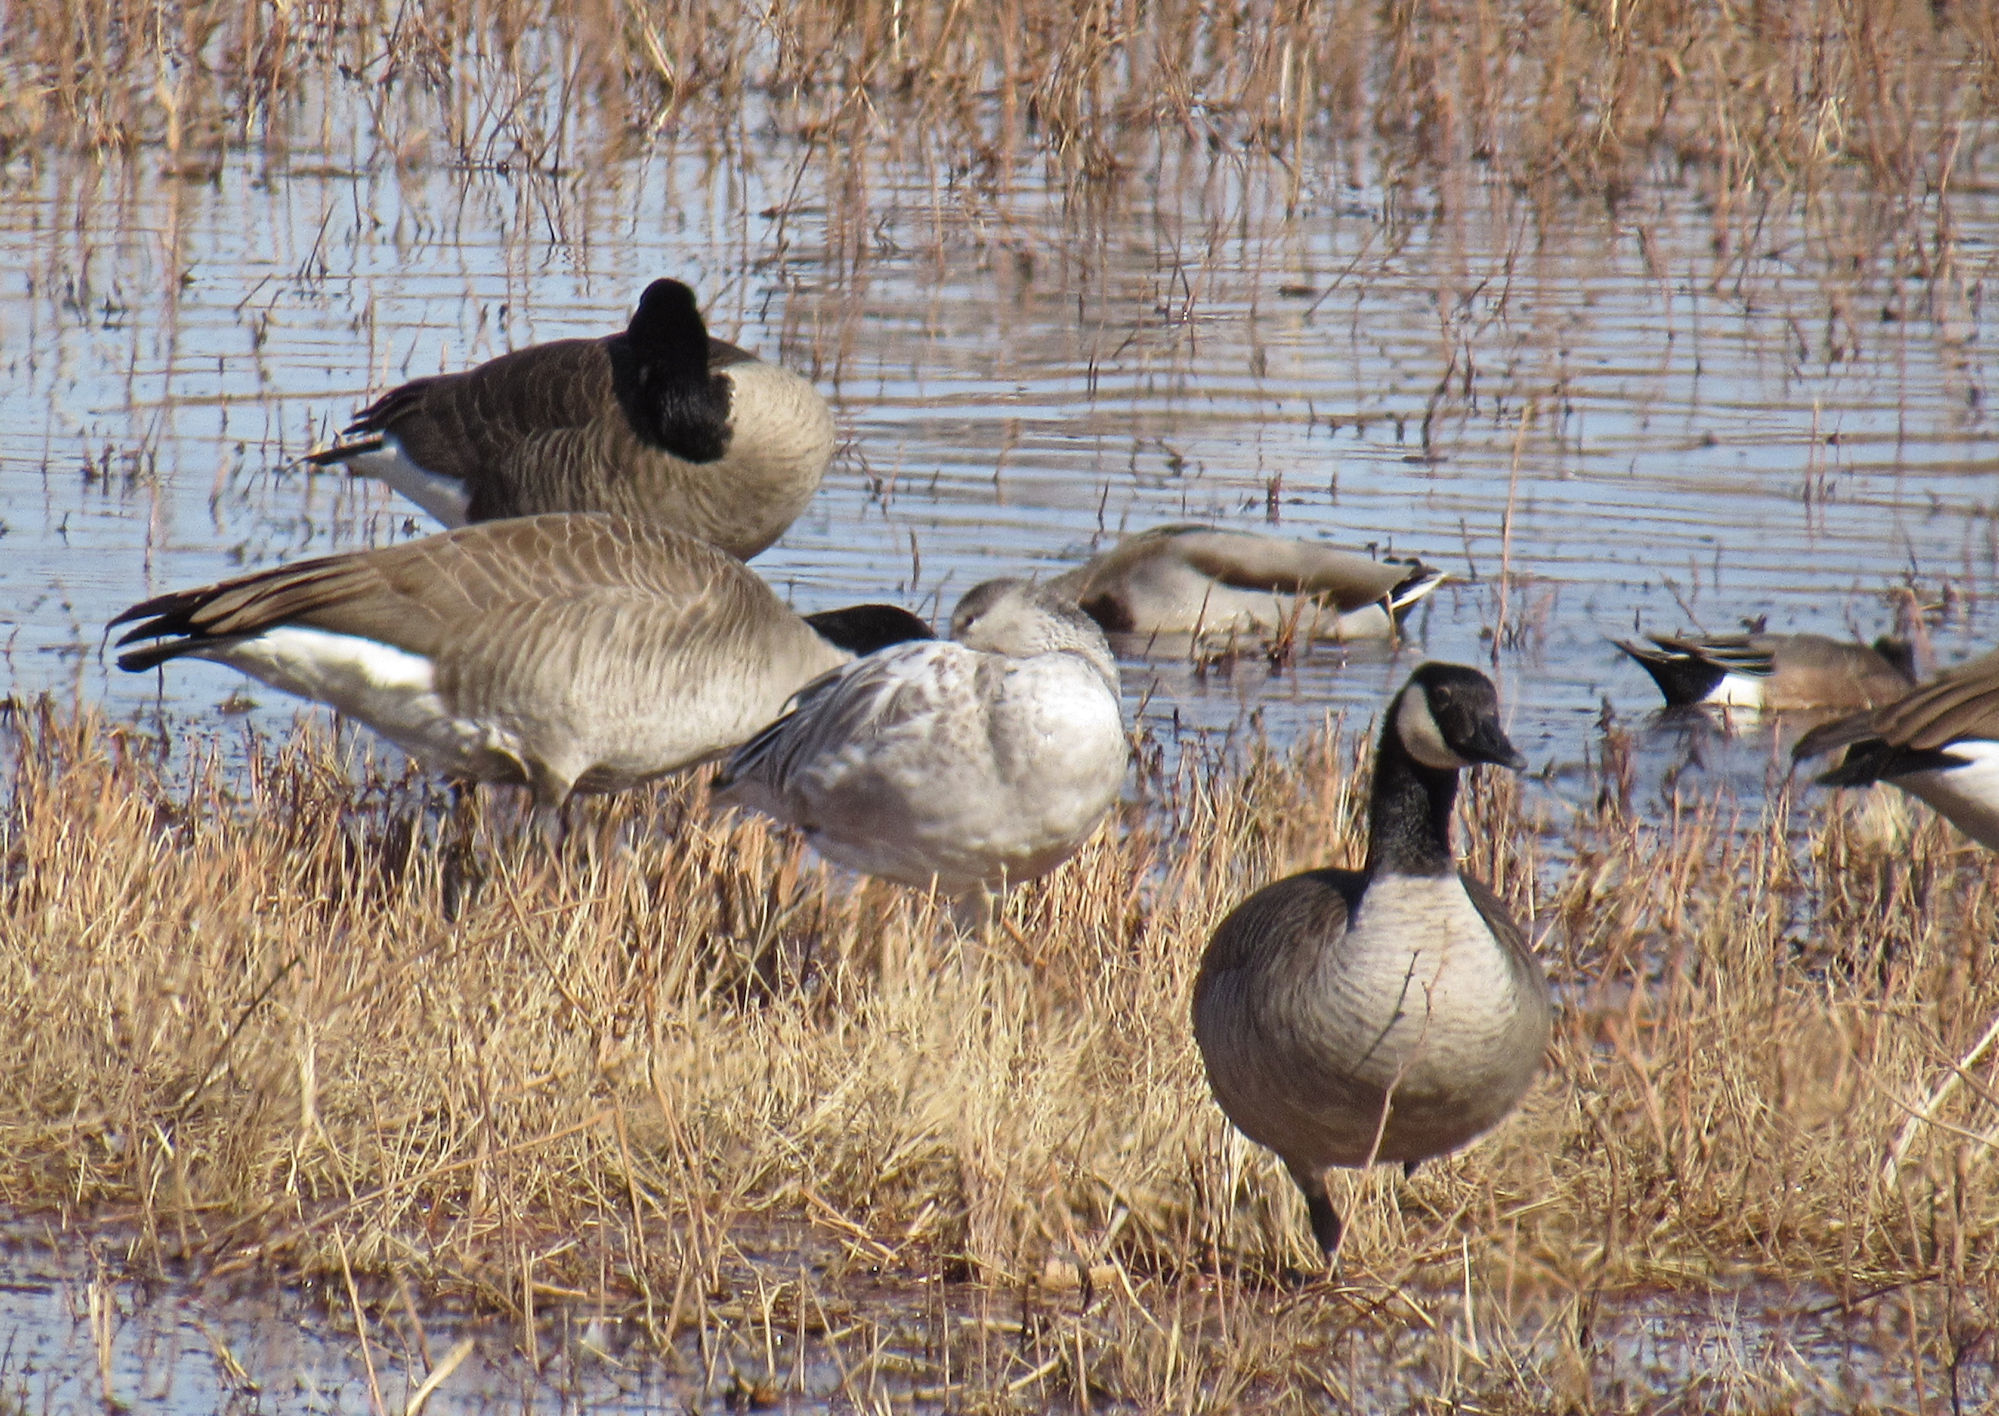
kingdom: Animalia
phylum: Chordata
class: Aves
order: Anseriformes
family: Anatidae
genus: Branta
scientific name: Branta canadensis
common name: Canada goose
